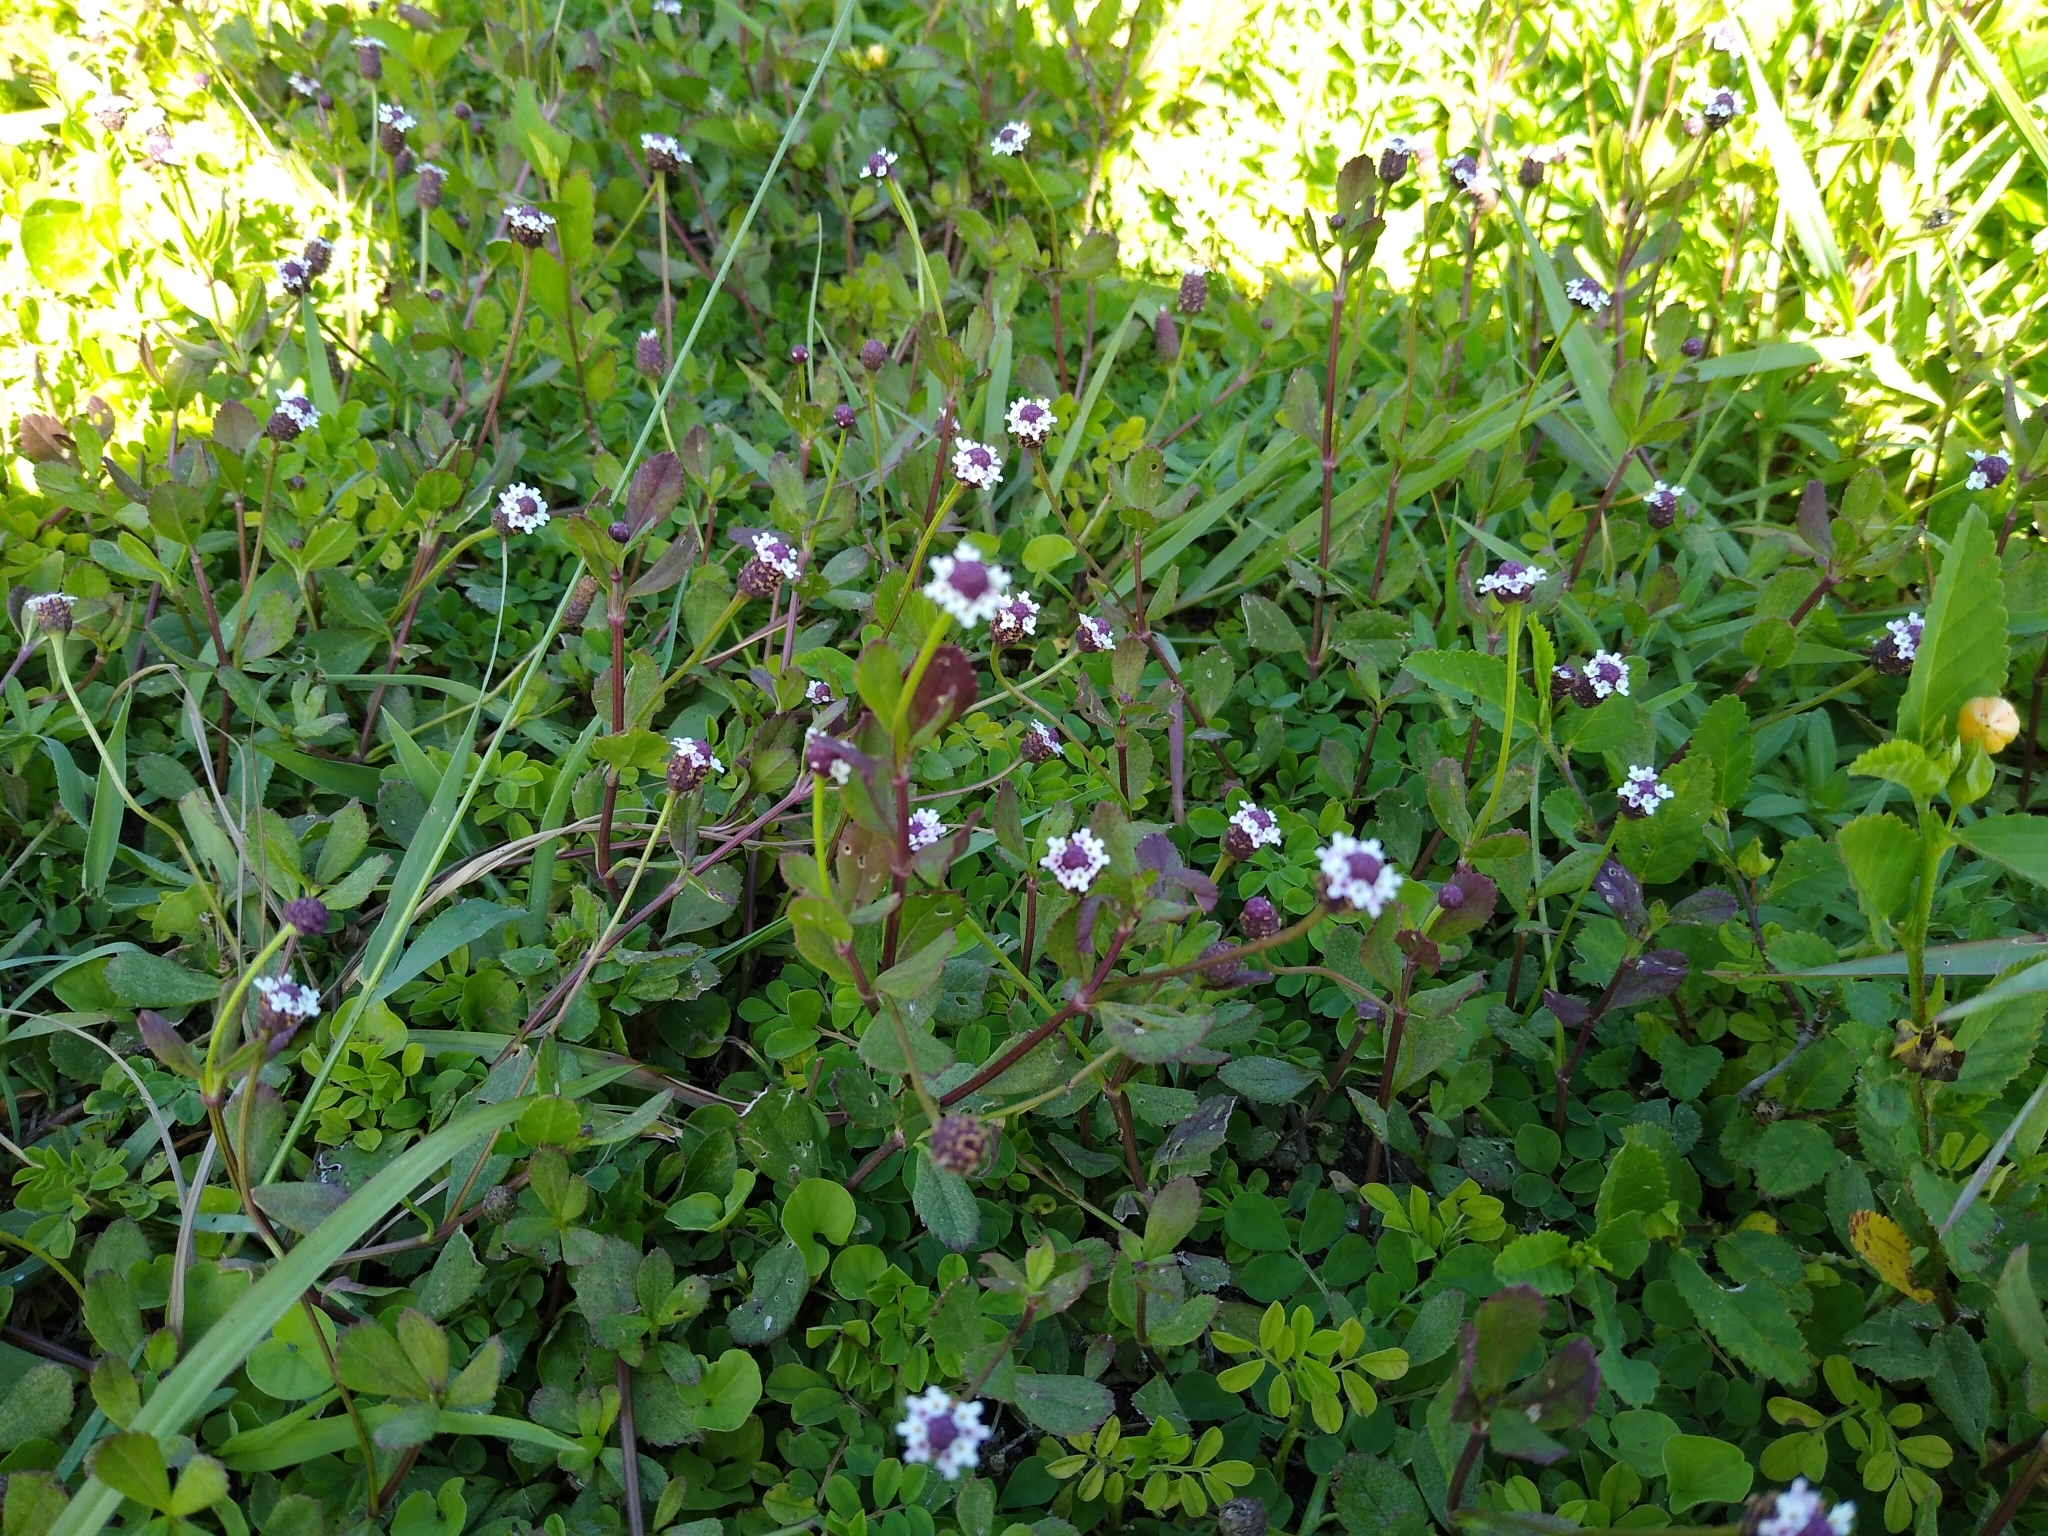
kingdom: Plantae
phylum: Tracheophyta
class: Magnoliopsida
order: Lamiales
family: Verbenaceae
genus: Phyla
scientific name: Phyla nodiflora
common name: Frogfruit
